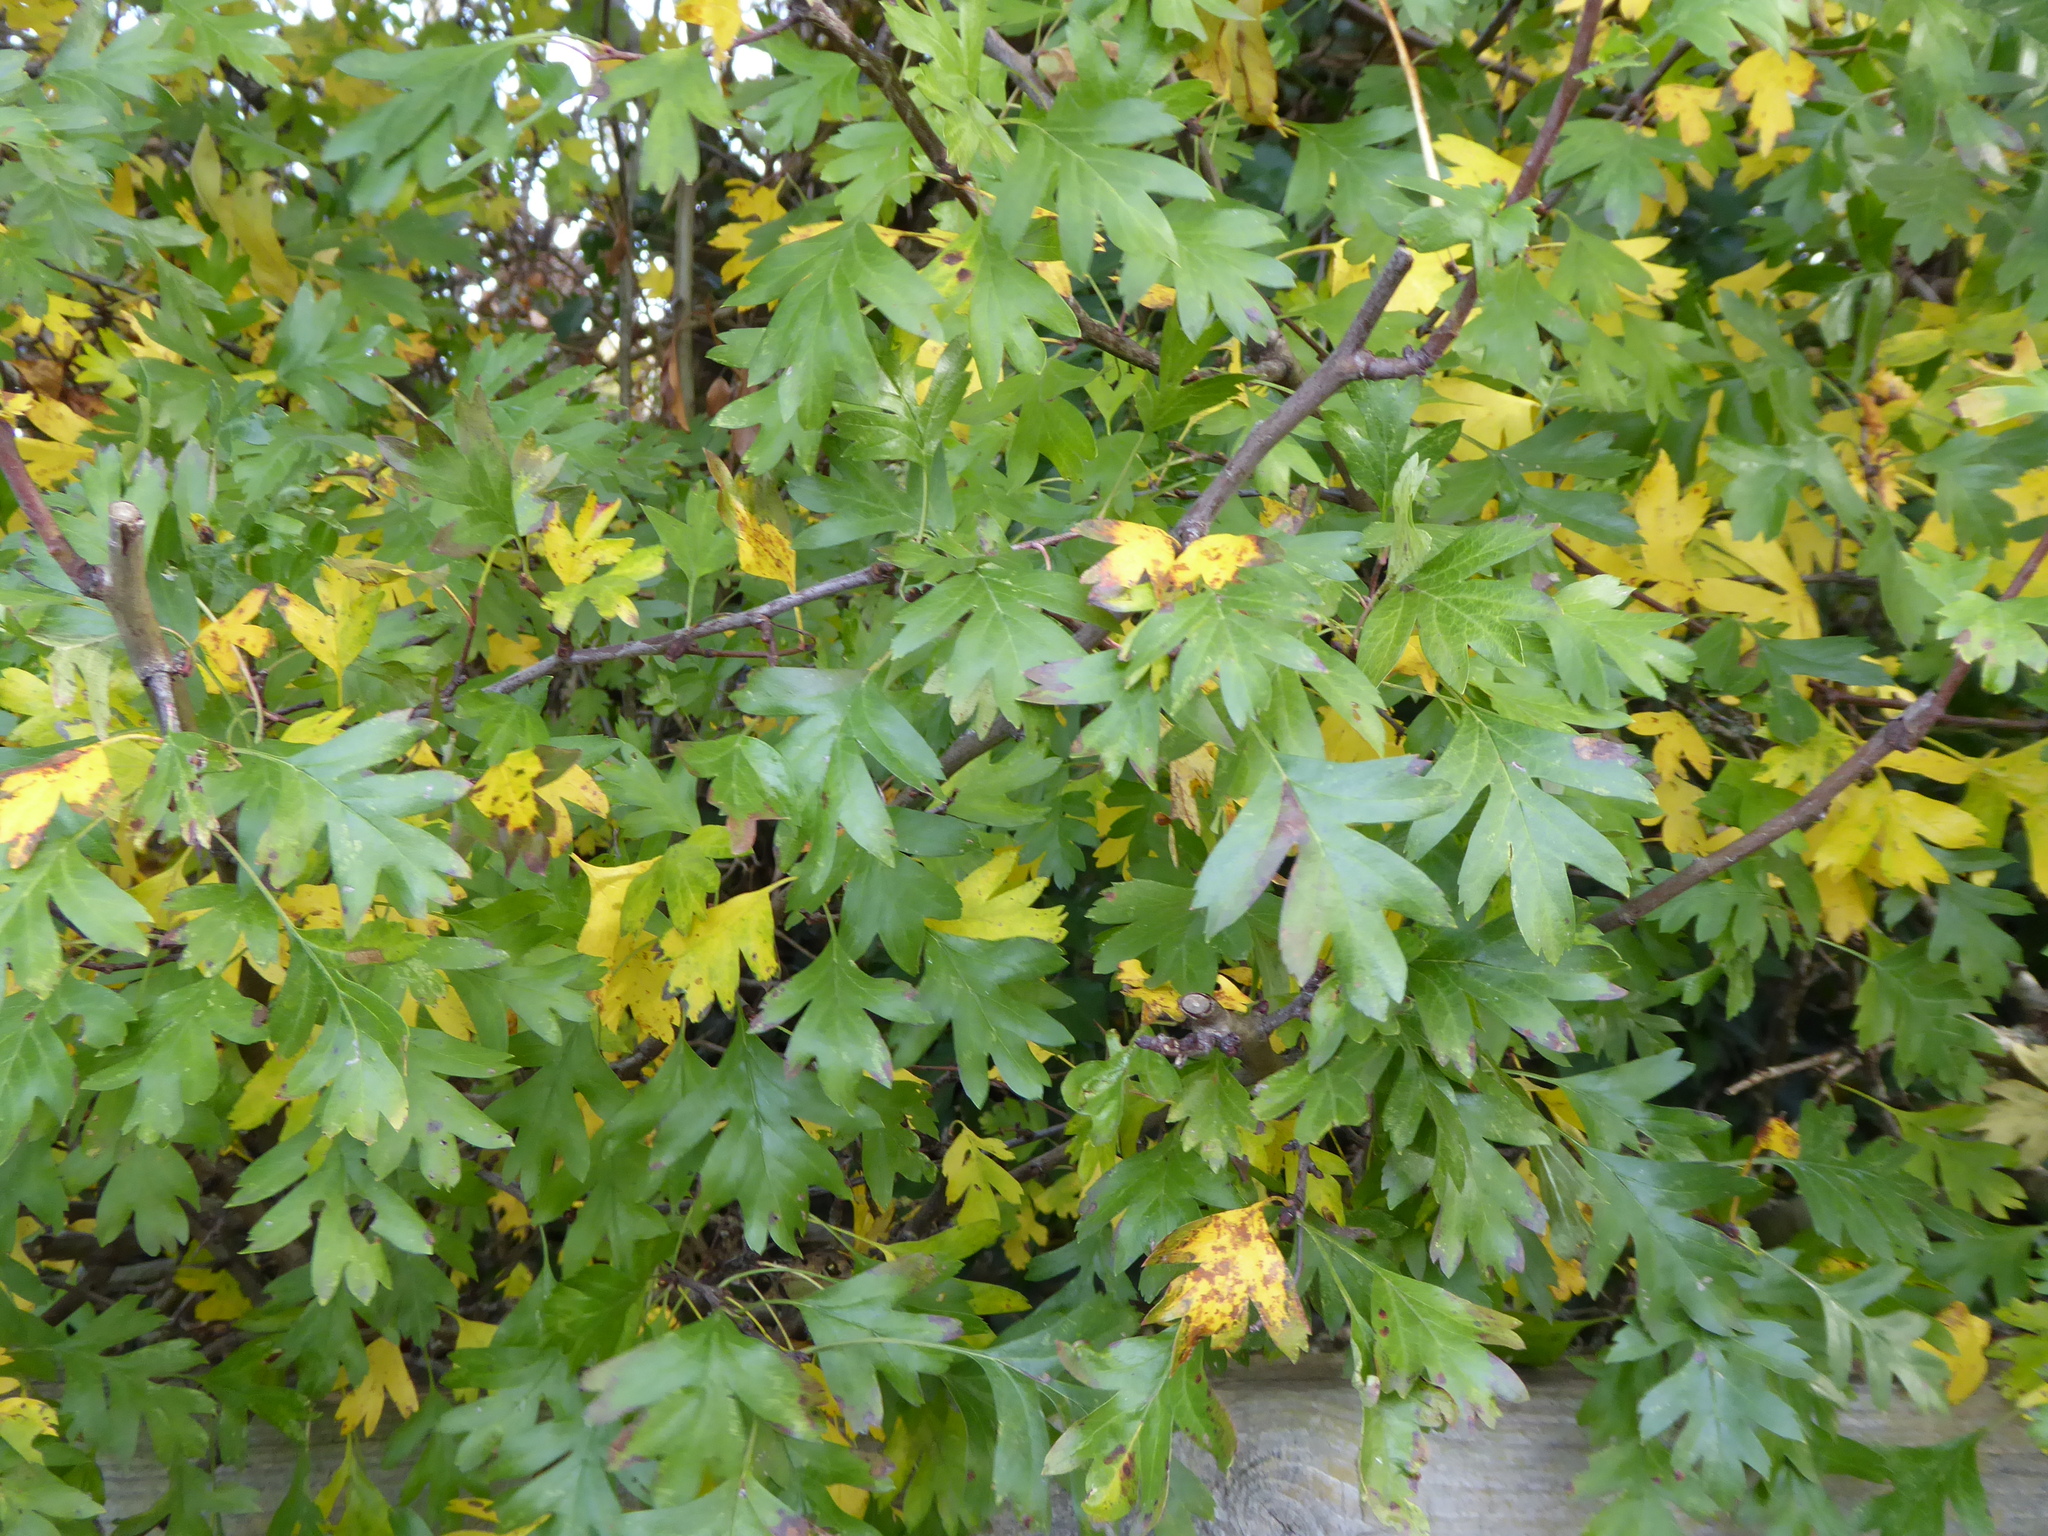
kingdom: Plantae
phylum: Tracheophyta
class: Magnoliopsida
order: Rosales
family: Rosaceae
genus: Crataegus
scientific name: Crataegus monogyna
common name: Hawthorn
